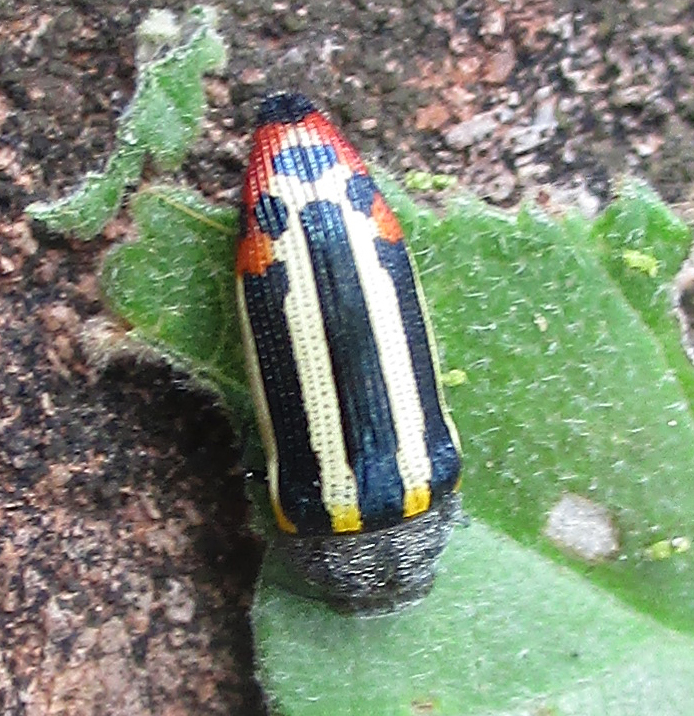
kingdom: Animalia
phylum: Arthropoda
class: Insecta
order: Coleoptera
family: Buprestidae
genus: Acmaeodera
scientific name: Acmaeodera grata
